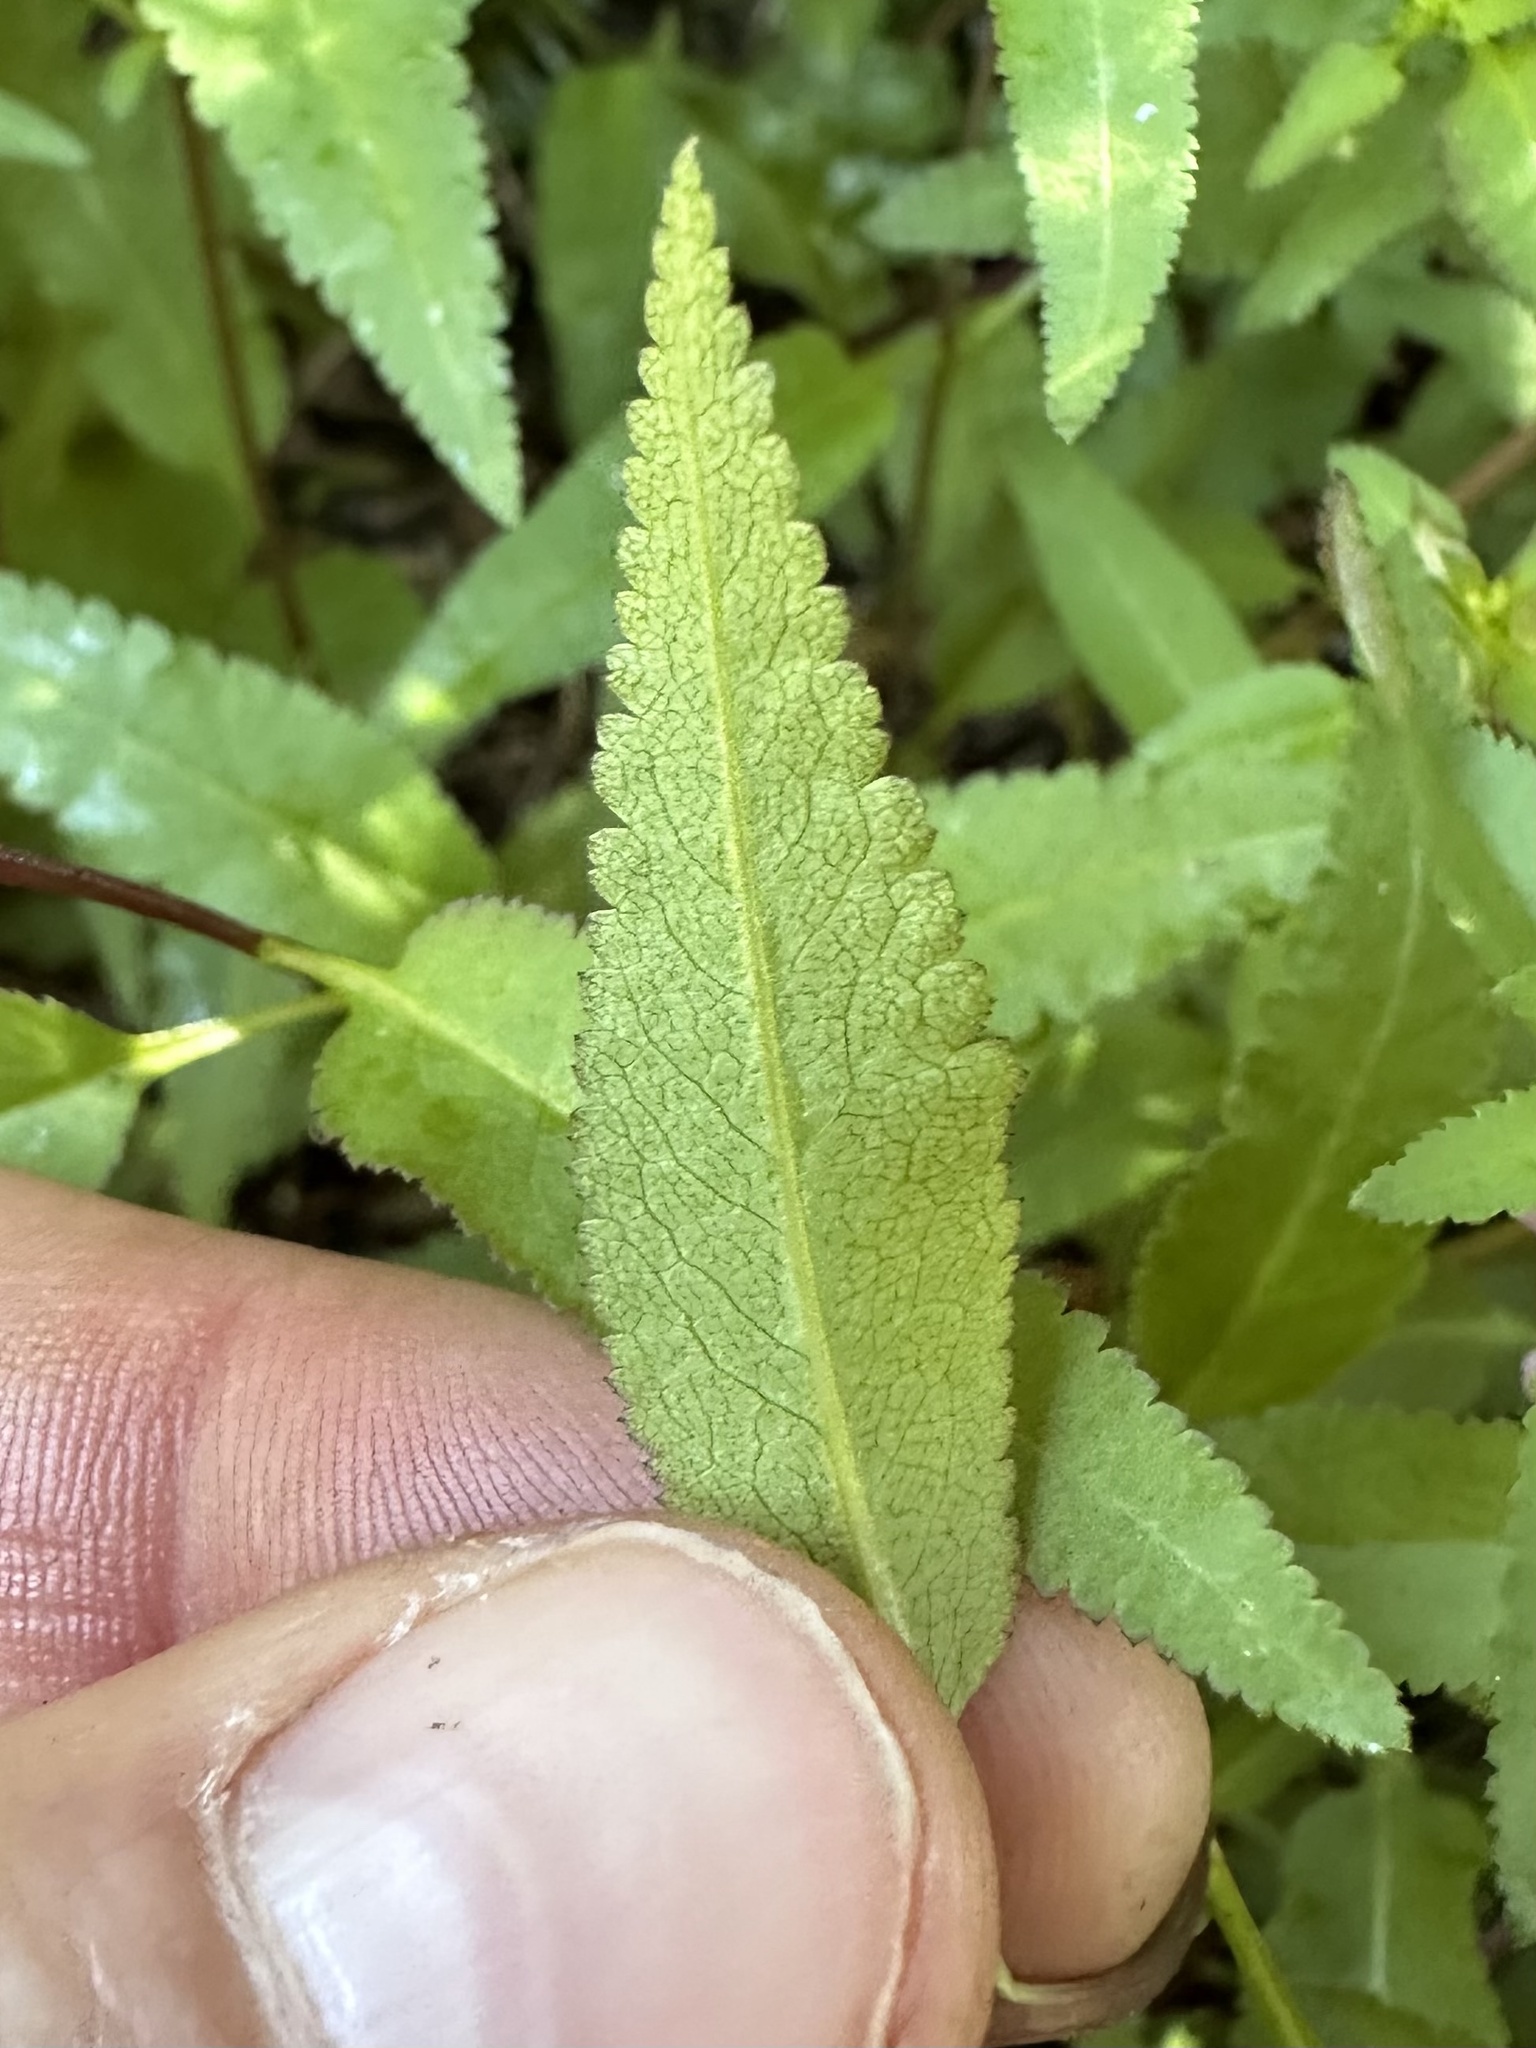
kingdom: Plantae
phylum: Tracheophyta
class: Magnoliopsida
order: Lamiales
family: Orobanchaceae
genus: Pedicularis
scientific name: Pedicularis racemosa
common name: Leafy lousewort
